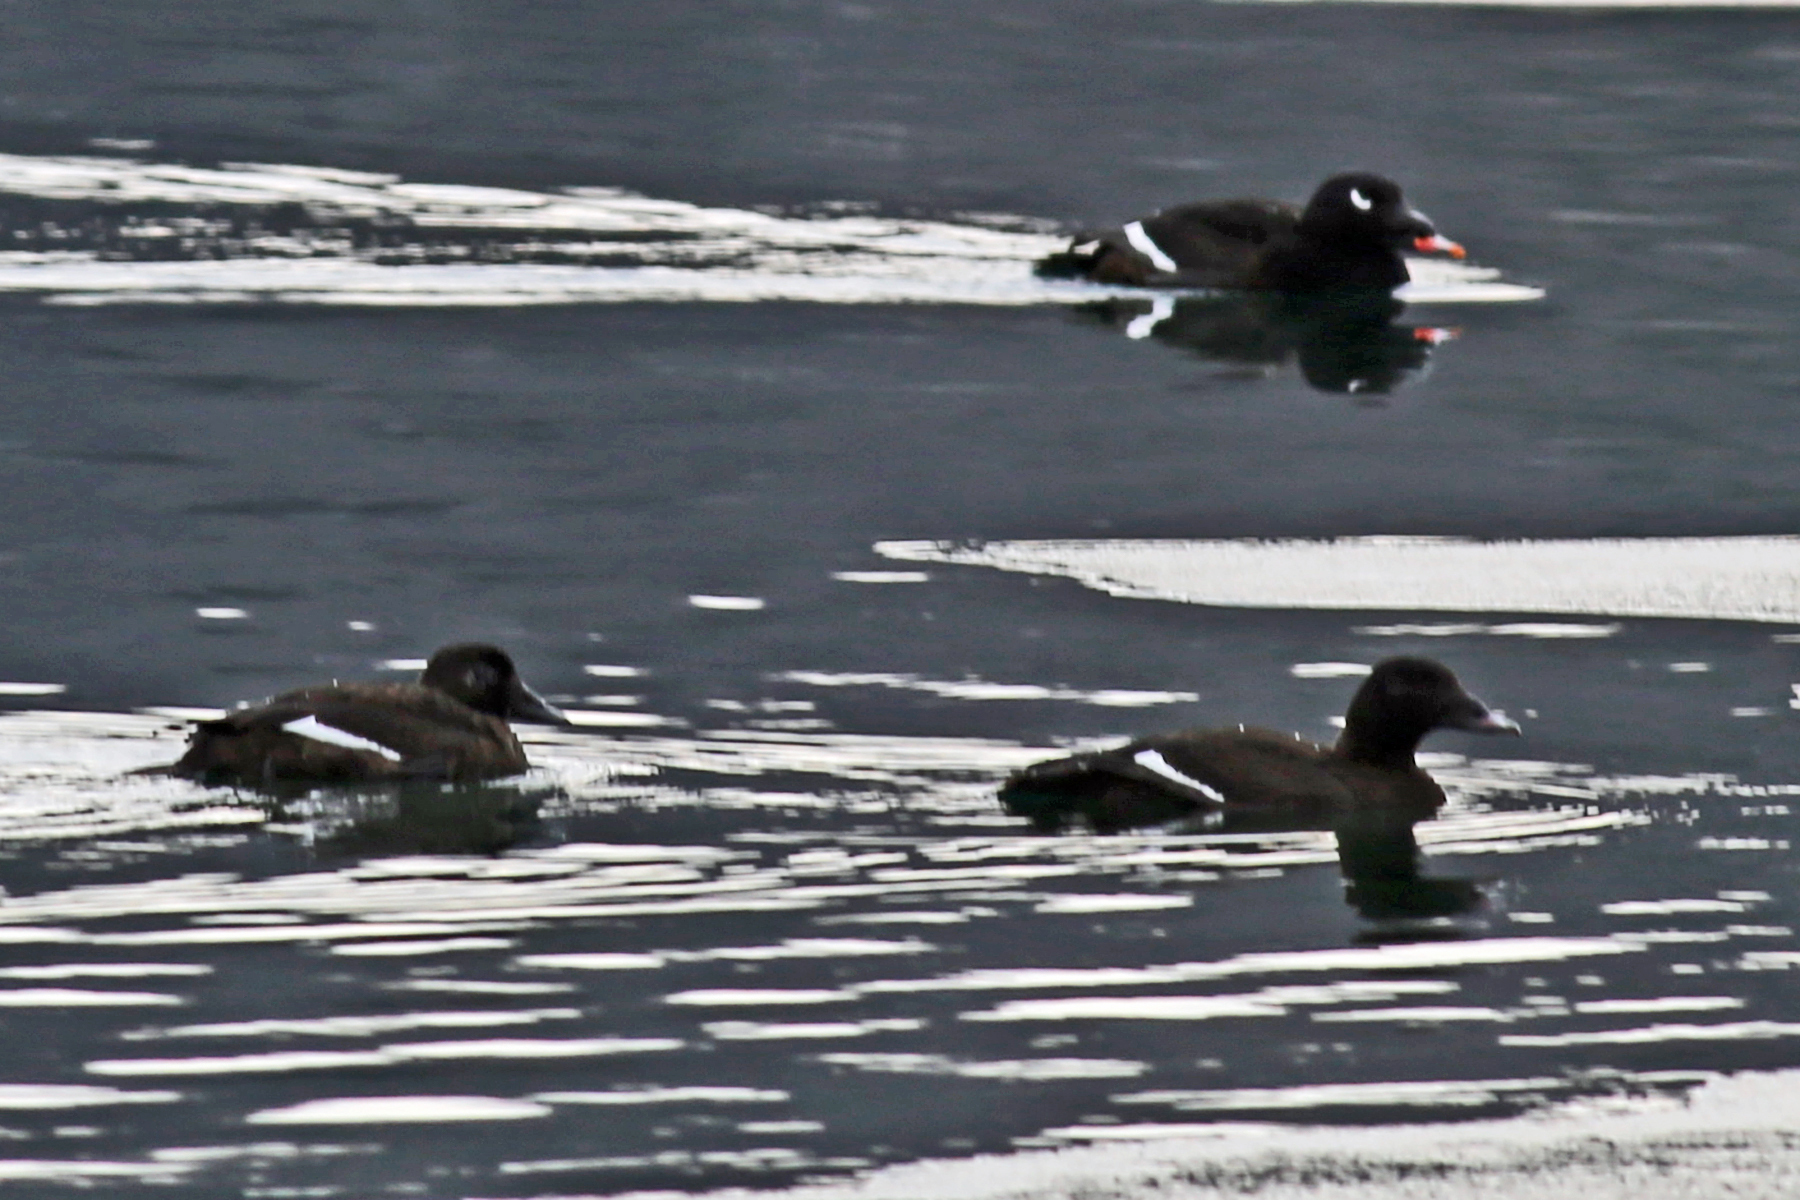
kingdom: Animalia
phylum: Chordata
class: Aves
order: Anseriformes
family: Anatidae
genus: Melanitta
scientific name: Melanitta deglandi
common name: White-winged scoter
